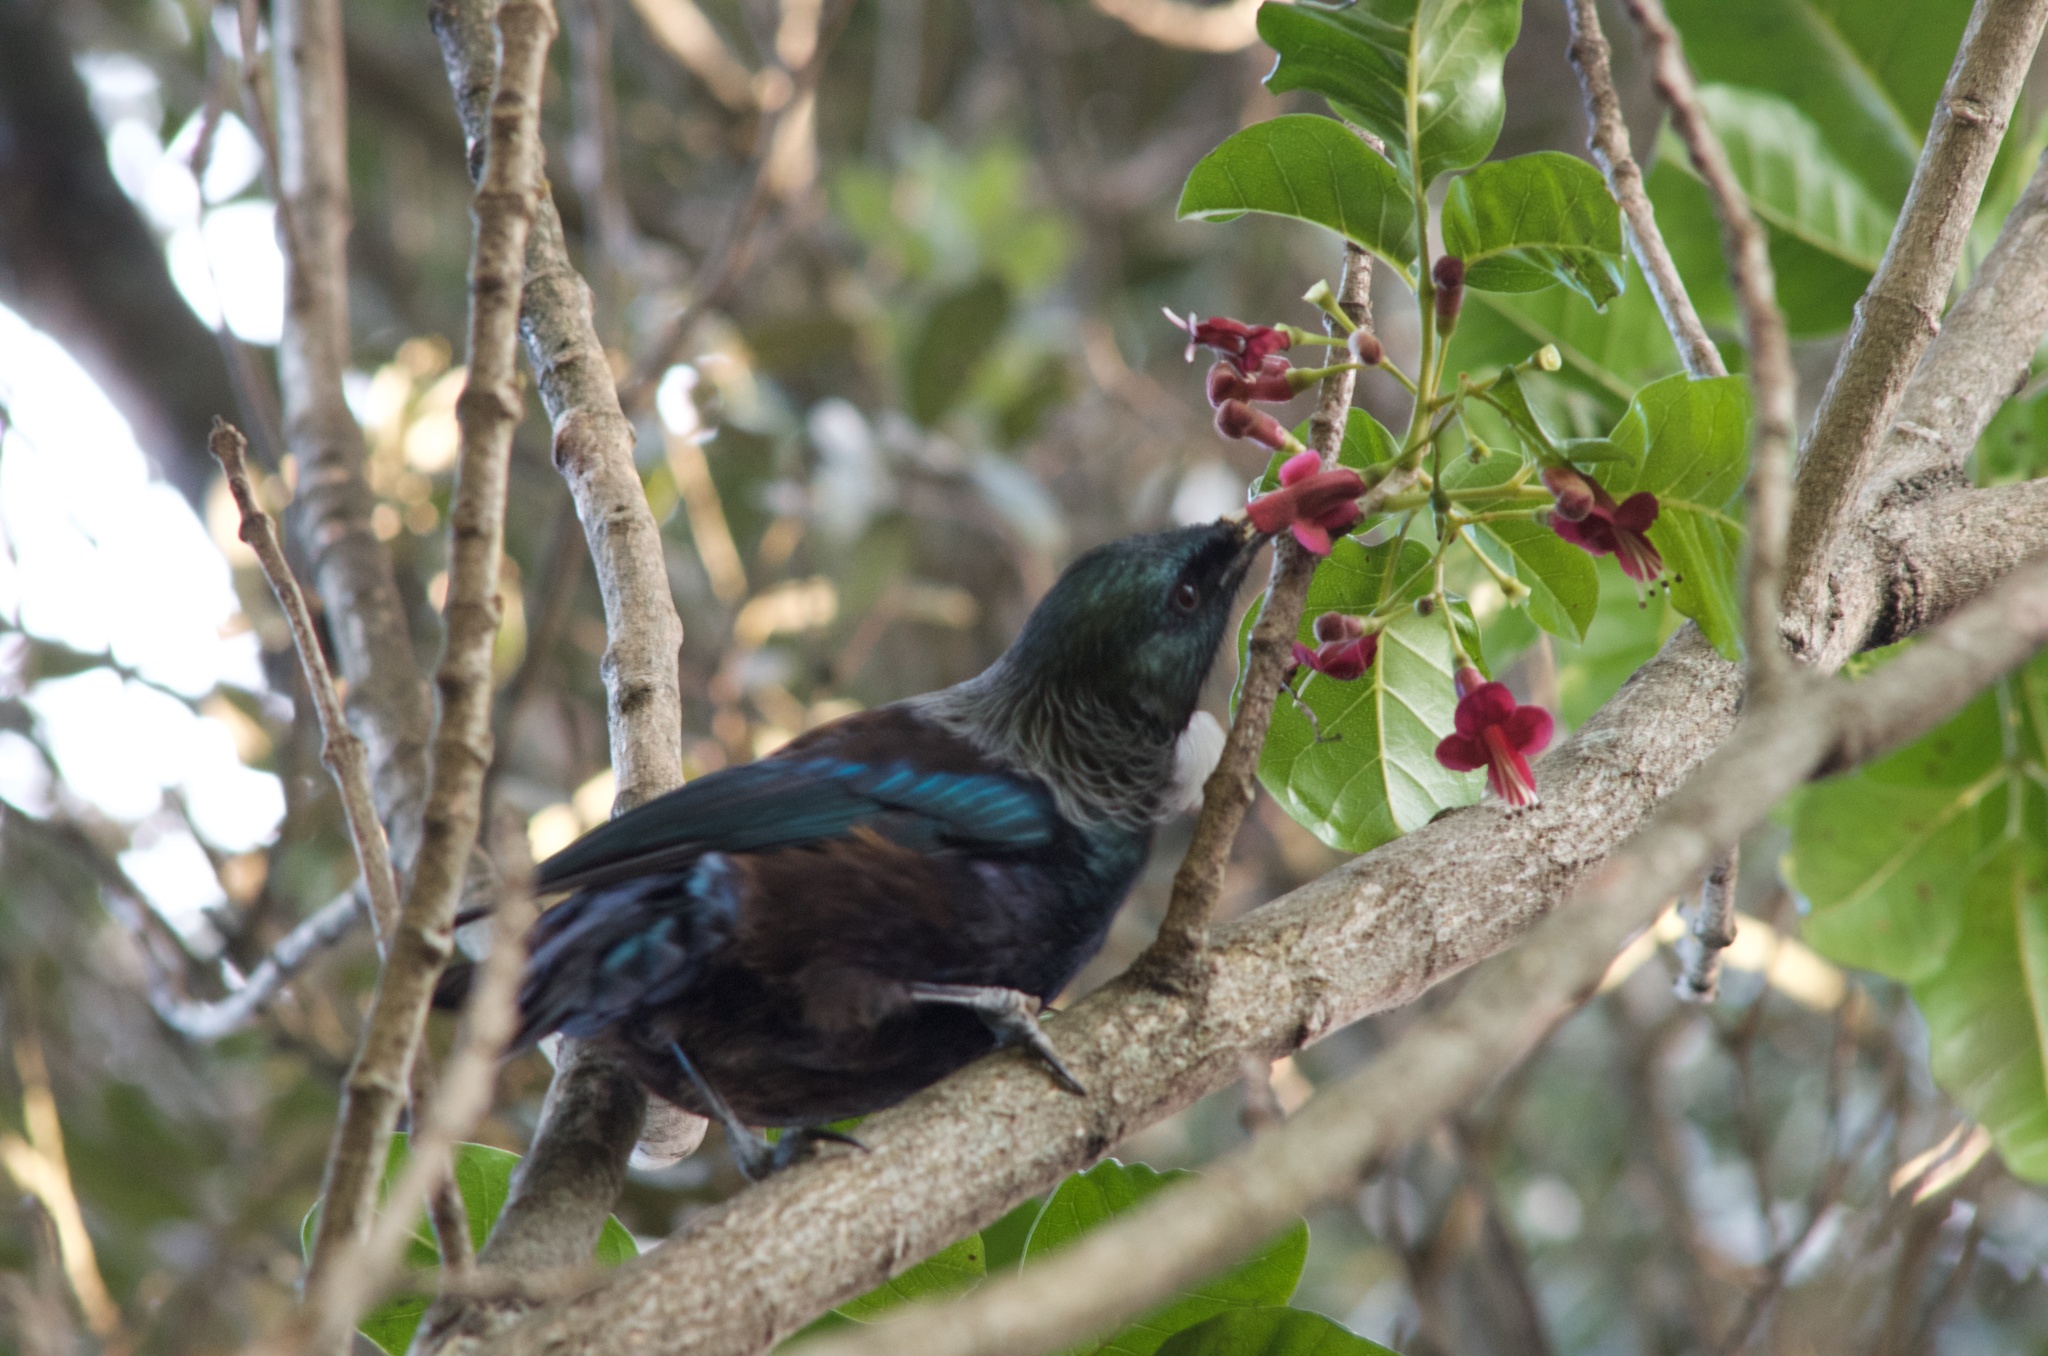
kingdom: Animalia
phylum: Chordata
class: Aves
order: Passeriformes
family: Meliphagidae
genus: Prosthemadera
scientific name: Prosthemadera novaeseelandiae
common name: Tui
